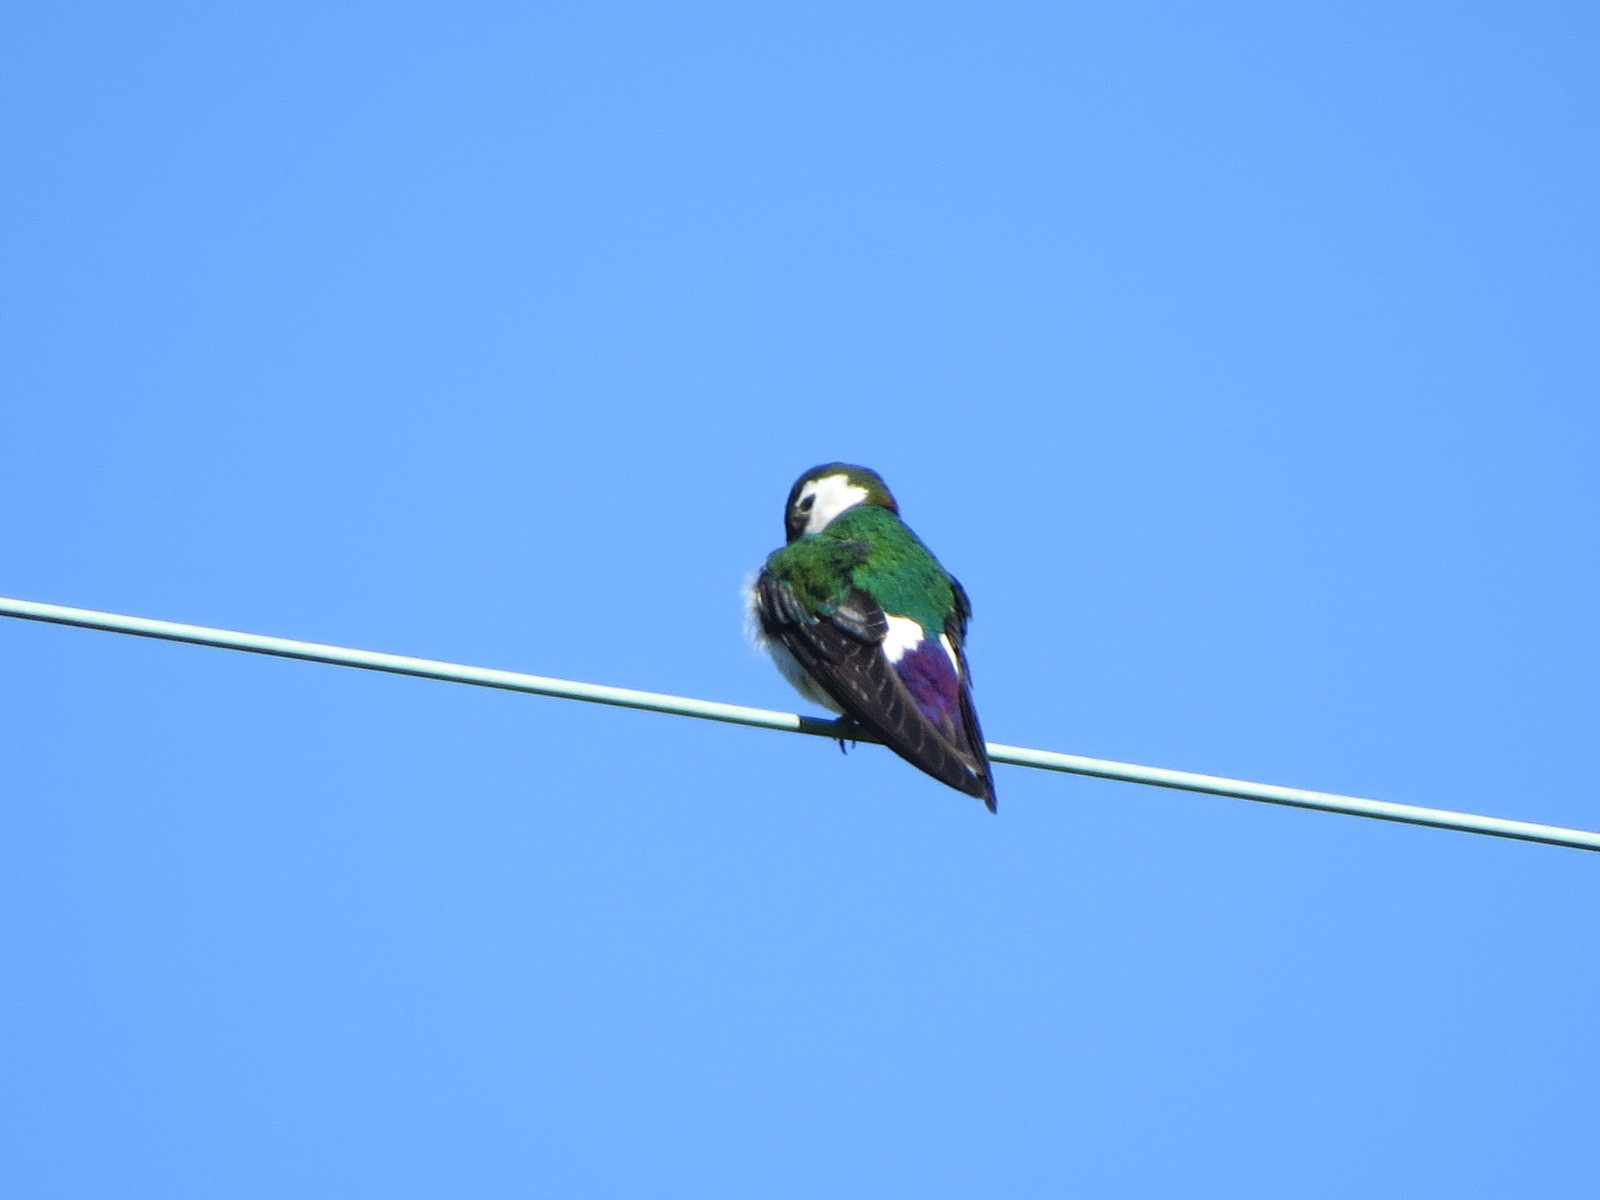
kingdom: Animalia
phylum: Chordata
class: Aves
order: Passeriformes
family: Hirundinidae
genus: Tachycineta
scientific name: Tachycineta thalassina
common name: Violet-green swallow
